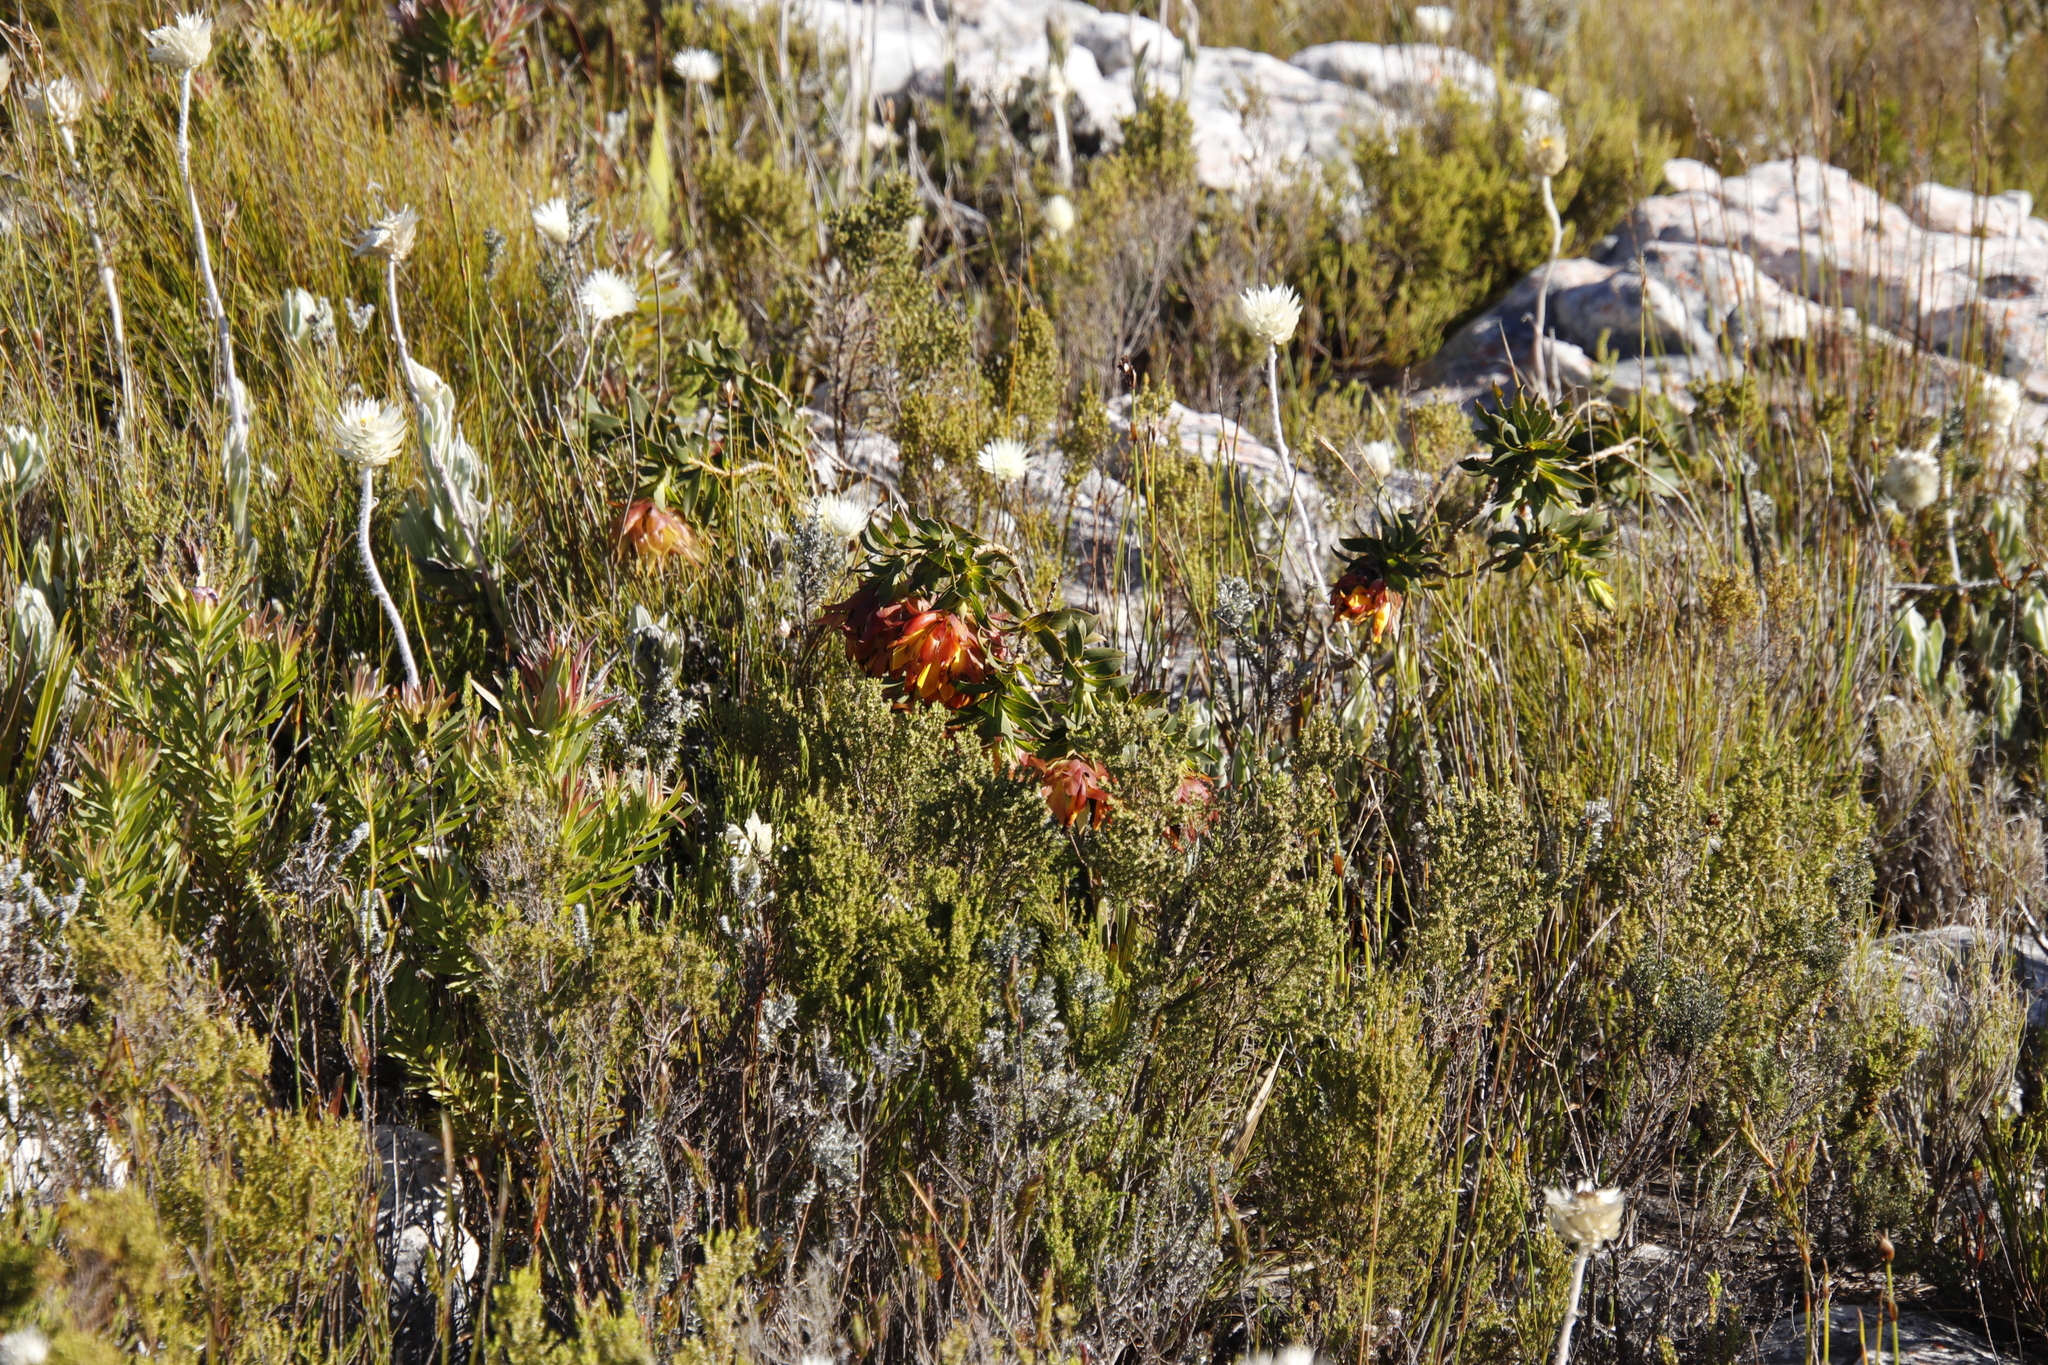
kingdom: Plantae
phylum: Tracheophyta
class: Magnoliopsida
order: Fabales
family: Fabaceae
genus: Liparia
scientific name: Liparia splendens
